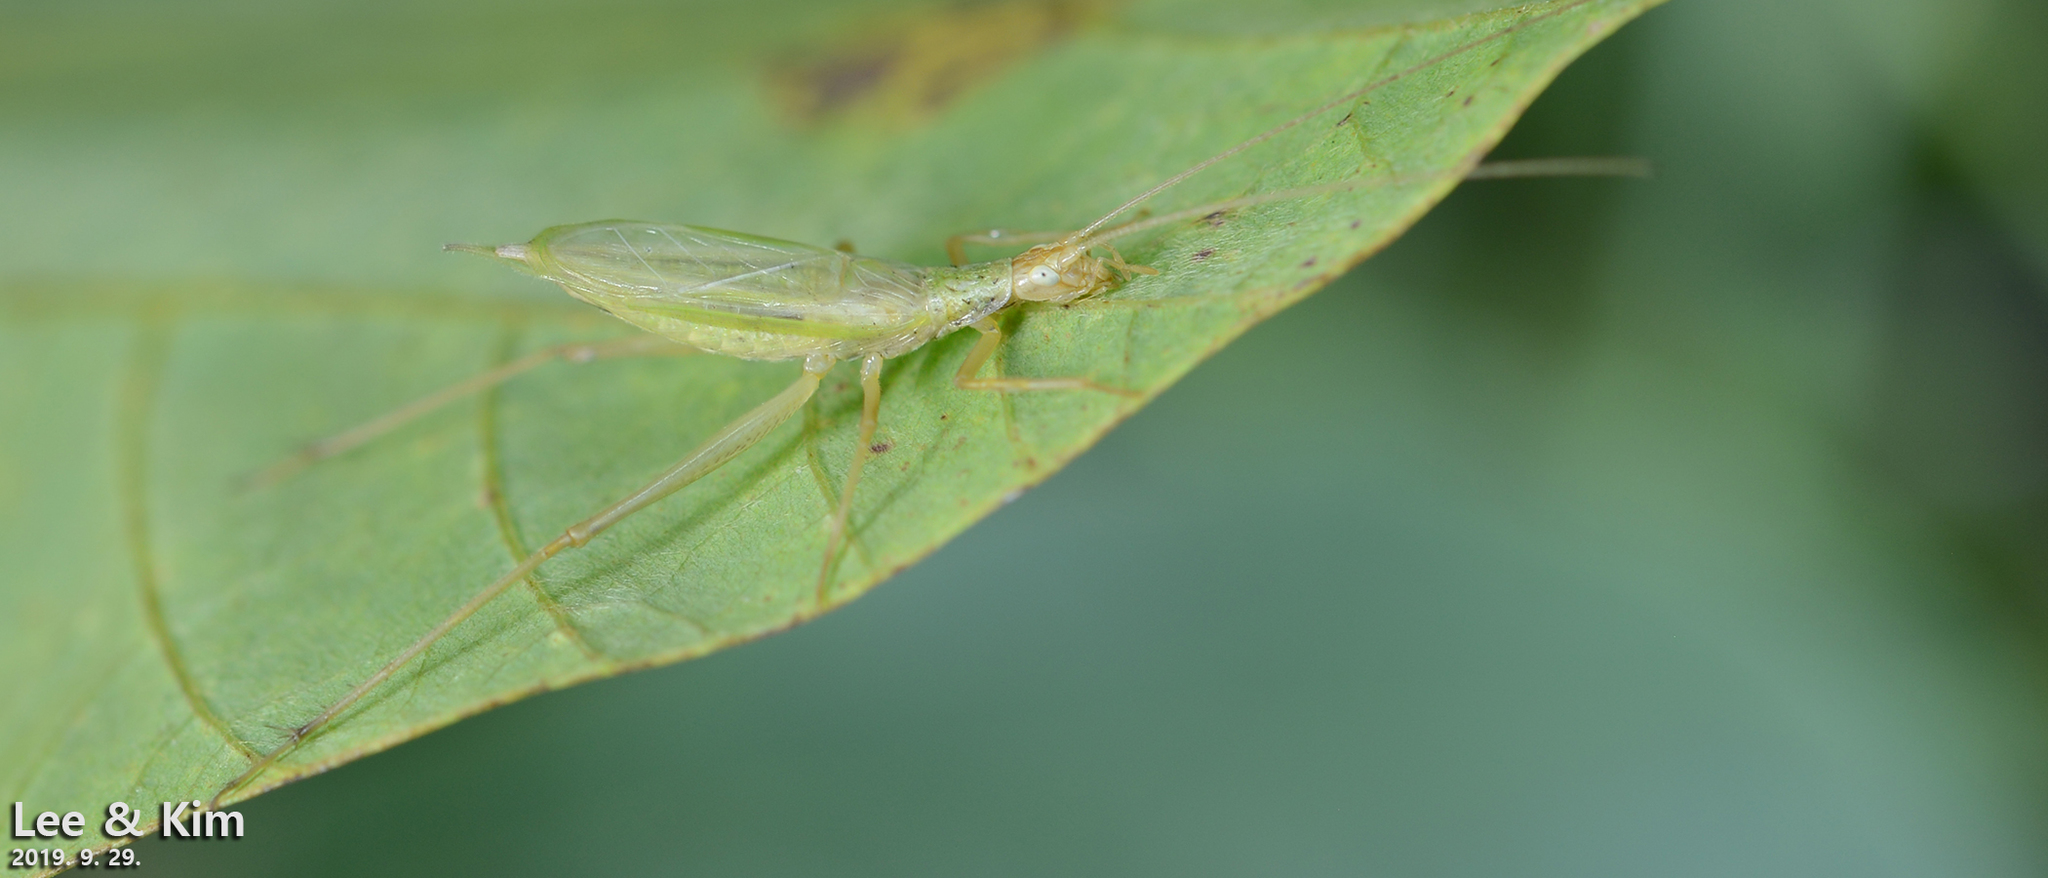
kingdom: Animalia
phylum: Arthropoda
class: Insecta
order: Orthoptera
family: Gryllidae
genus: Oecanthus
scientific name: Oecanthus longicauda
